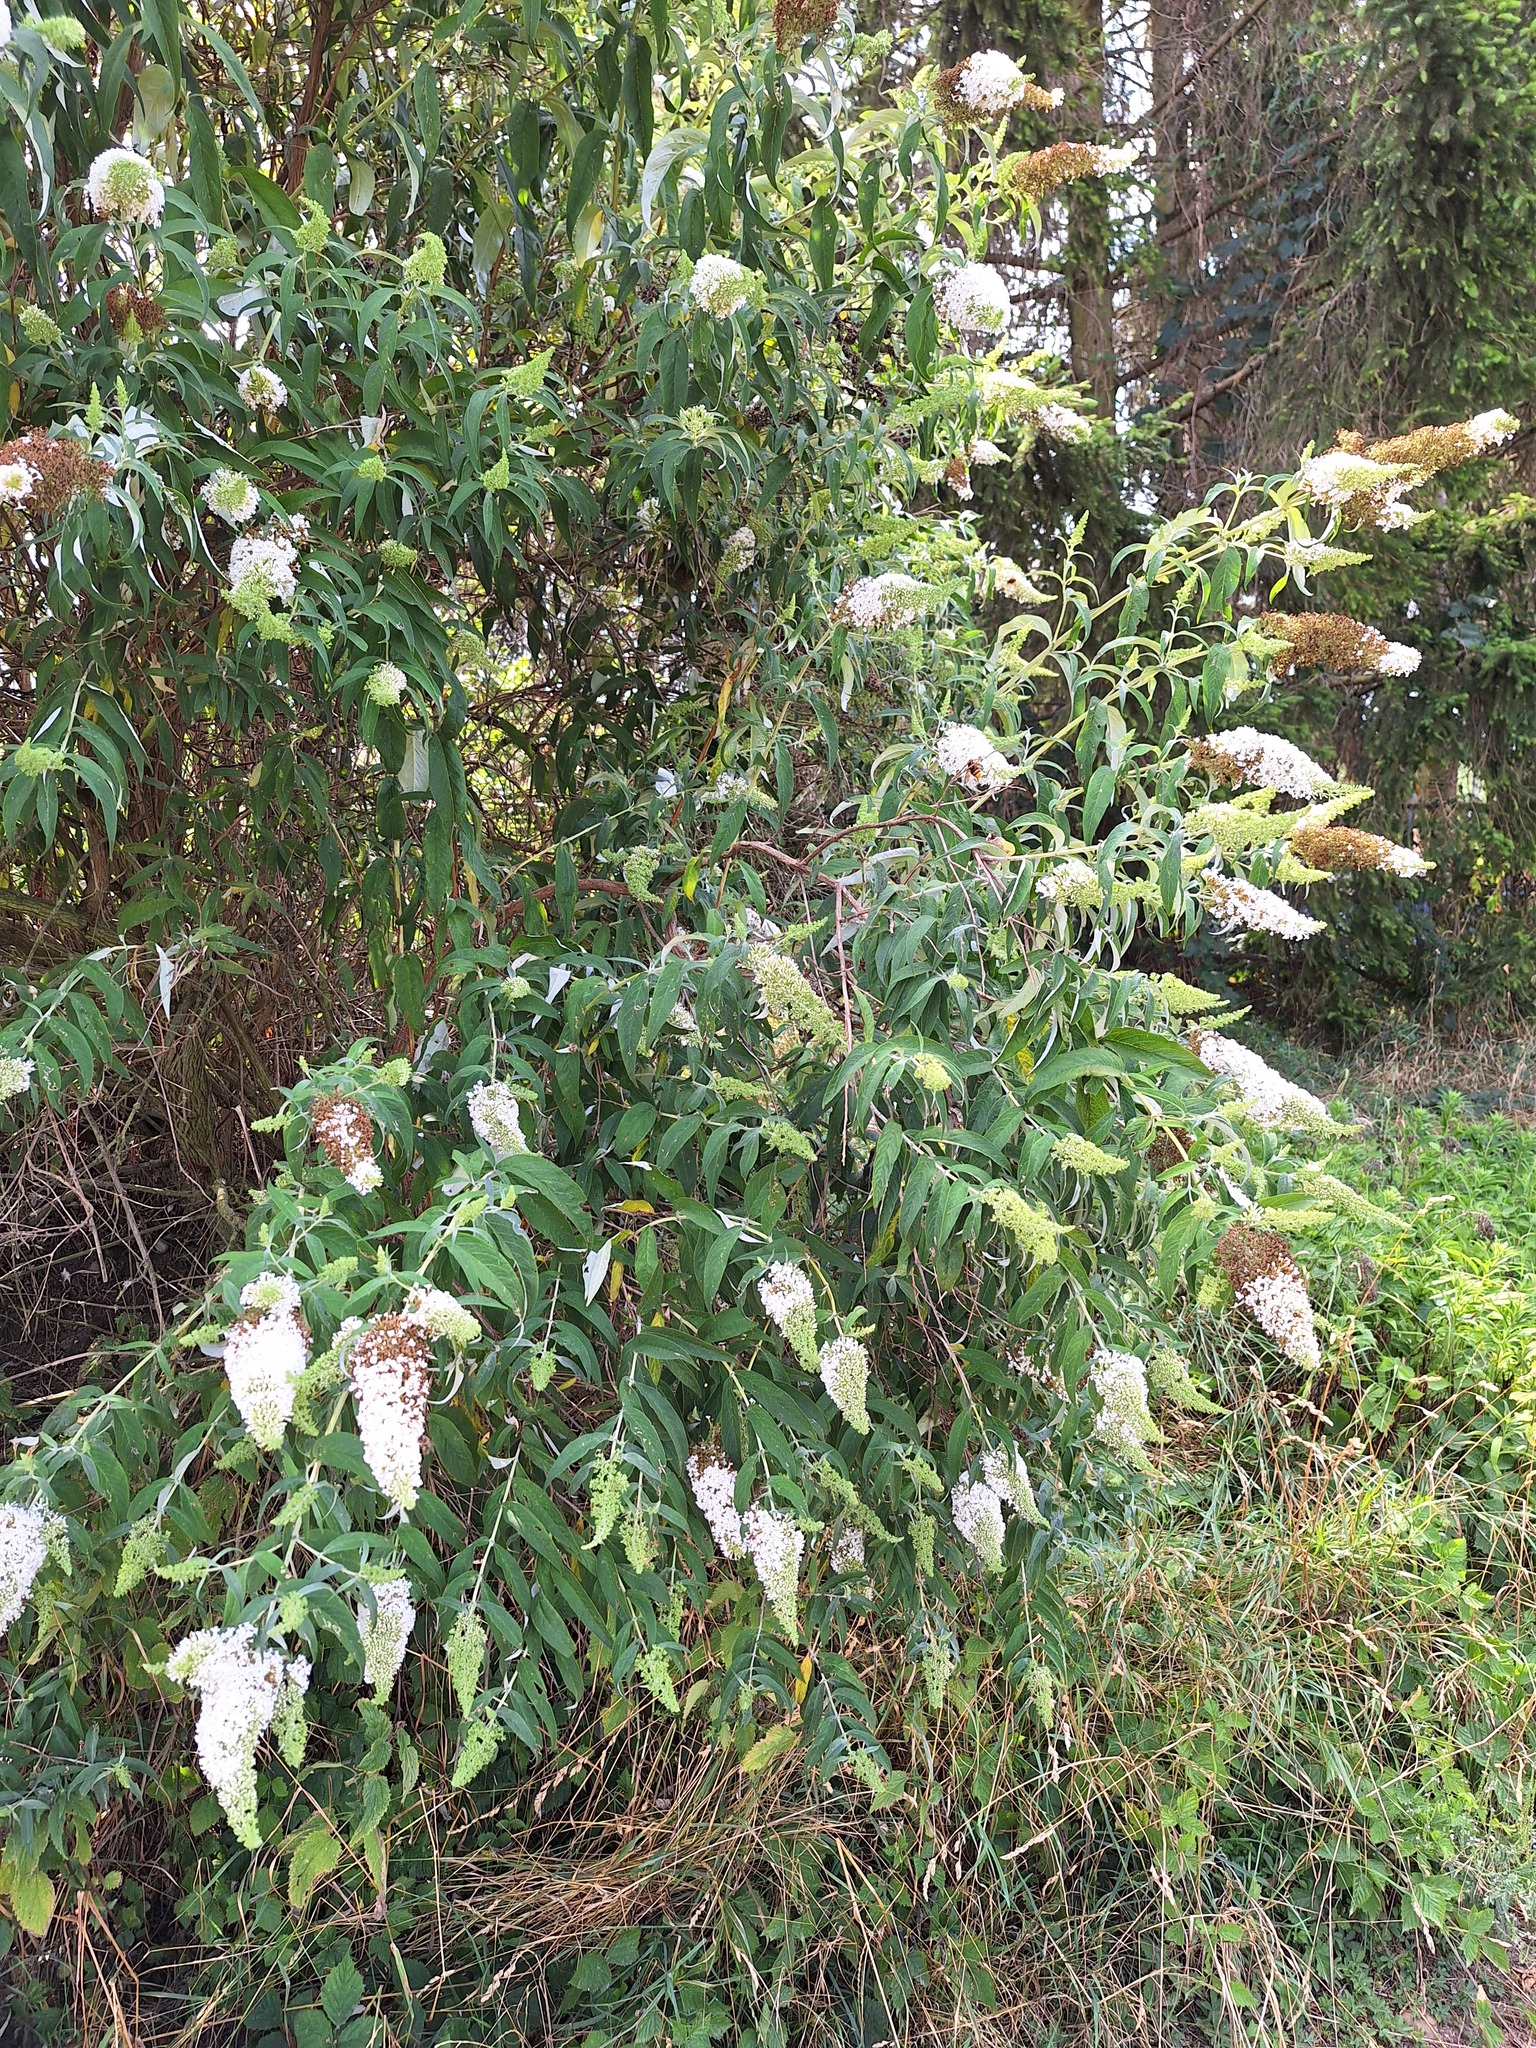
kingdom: Plantae
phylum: Tracheophyta
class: Magnoliopsida
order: Lamiales
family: Scrophulariaceae
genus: Buddleja
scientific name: Buddleja davidii
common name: Butterfly-bush
